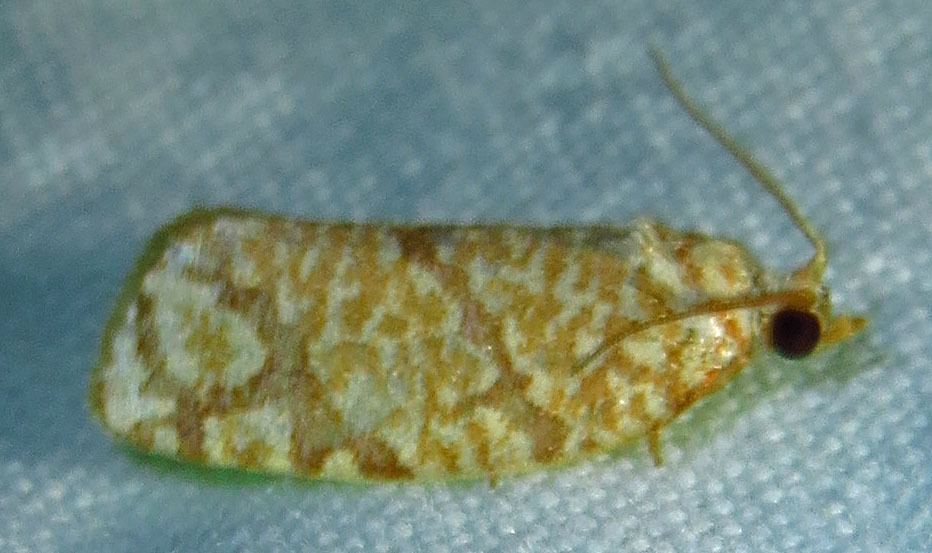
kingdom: Animalia
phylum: Arthropoda
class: Insecta
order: Lepidoptera
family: Tortricidae
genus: Argyrotaenia
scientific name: Argyrotaenia quercifoliana
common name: Yellow-winged oak leafroller moth
